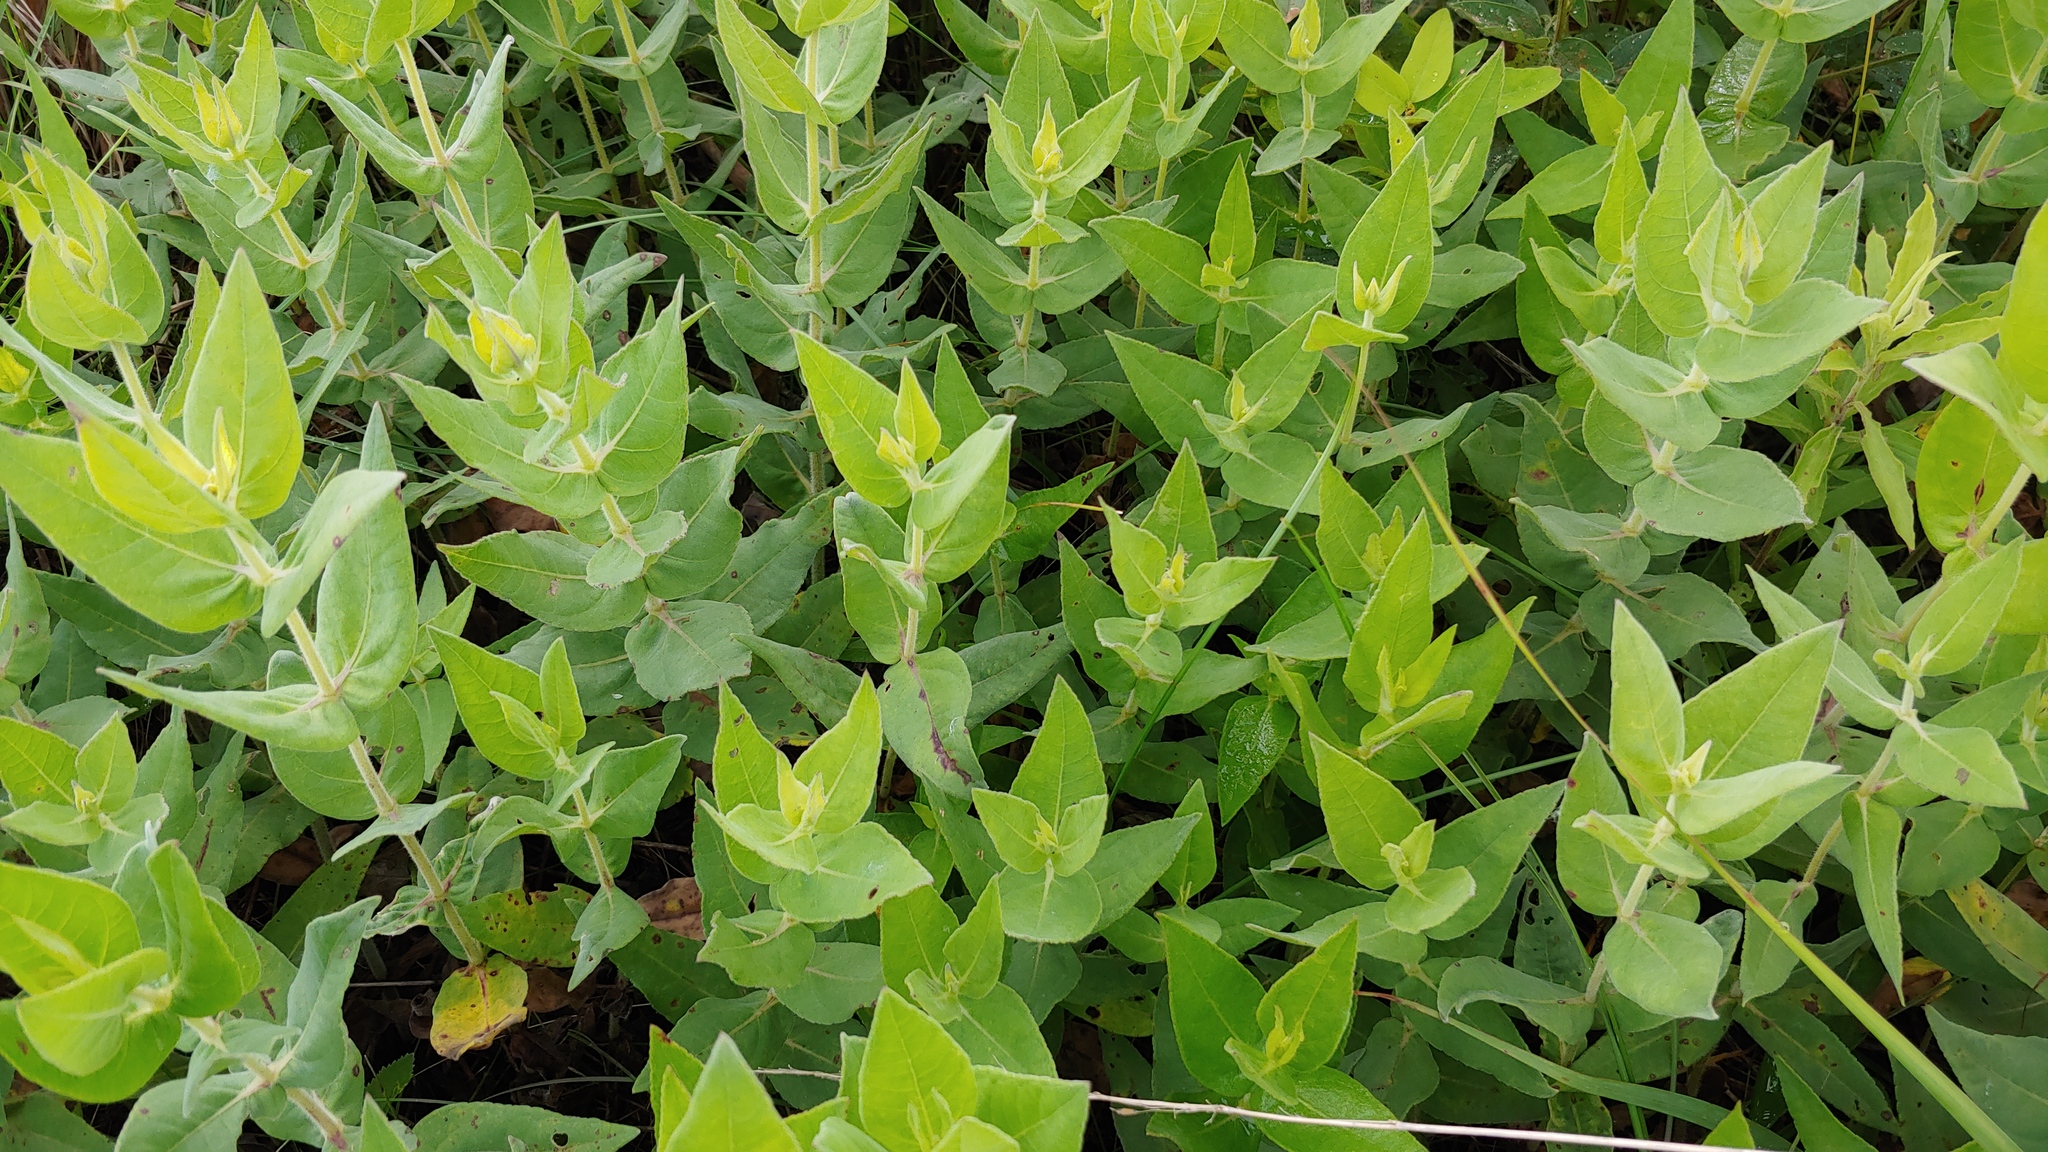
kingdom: Plantae
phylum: Tracheophyta
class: Magnoliopsida
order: Asterales
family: Asteraceae
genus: Helianthus
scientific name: Helianthus mollis
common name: Ashy sunflower
